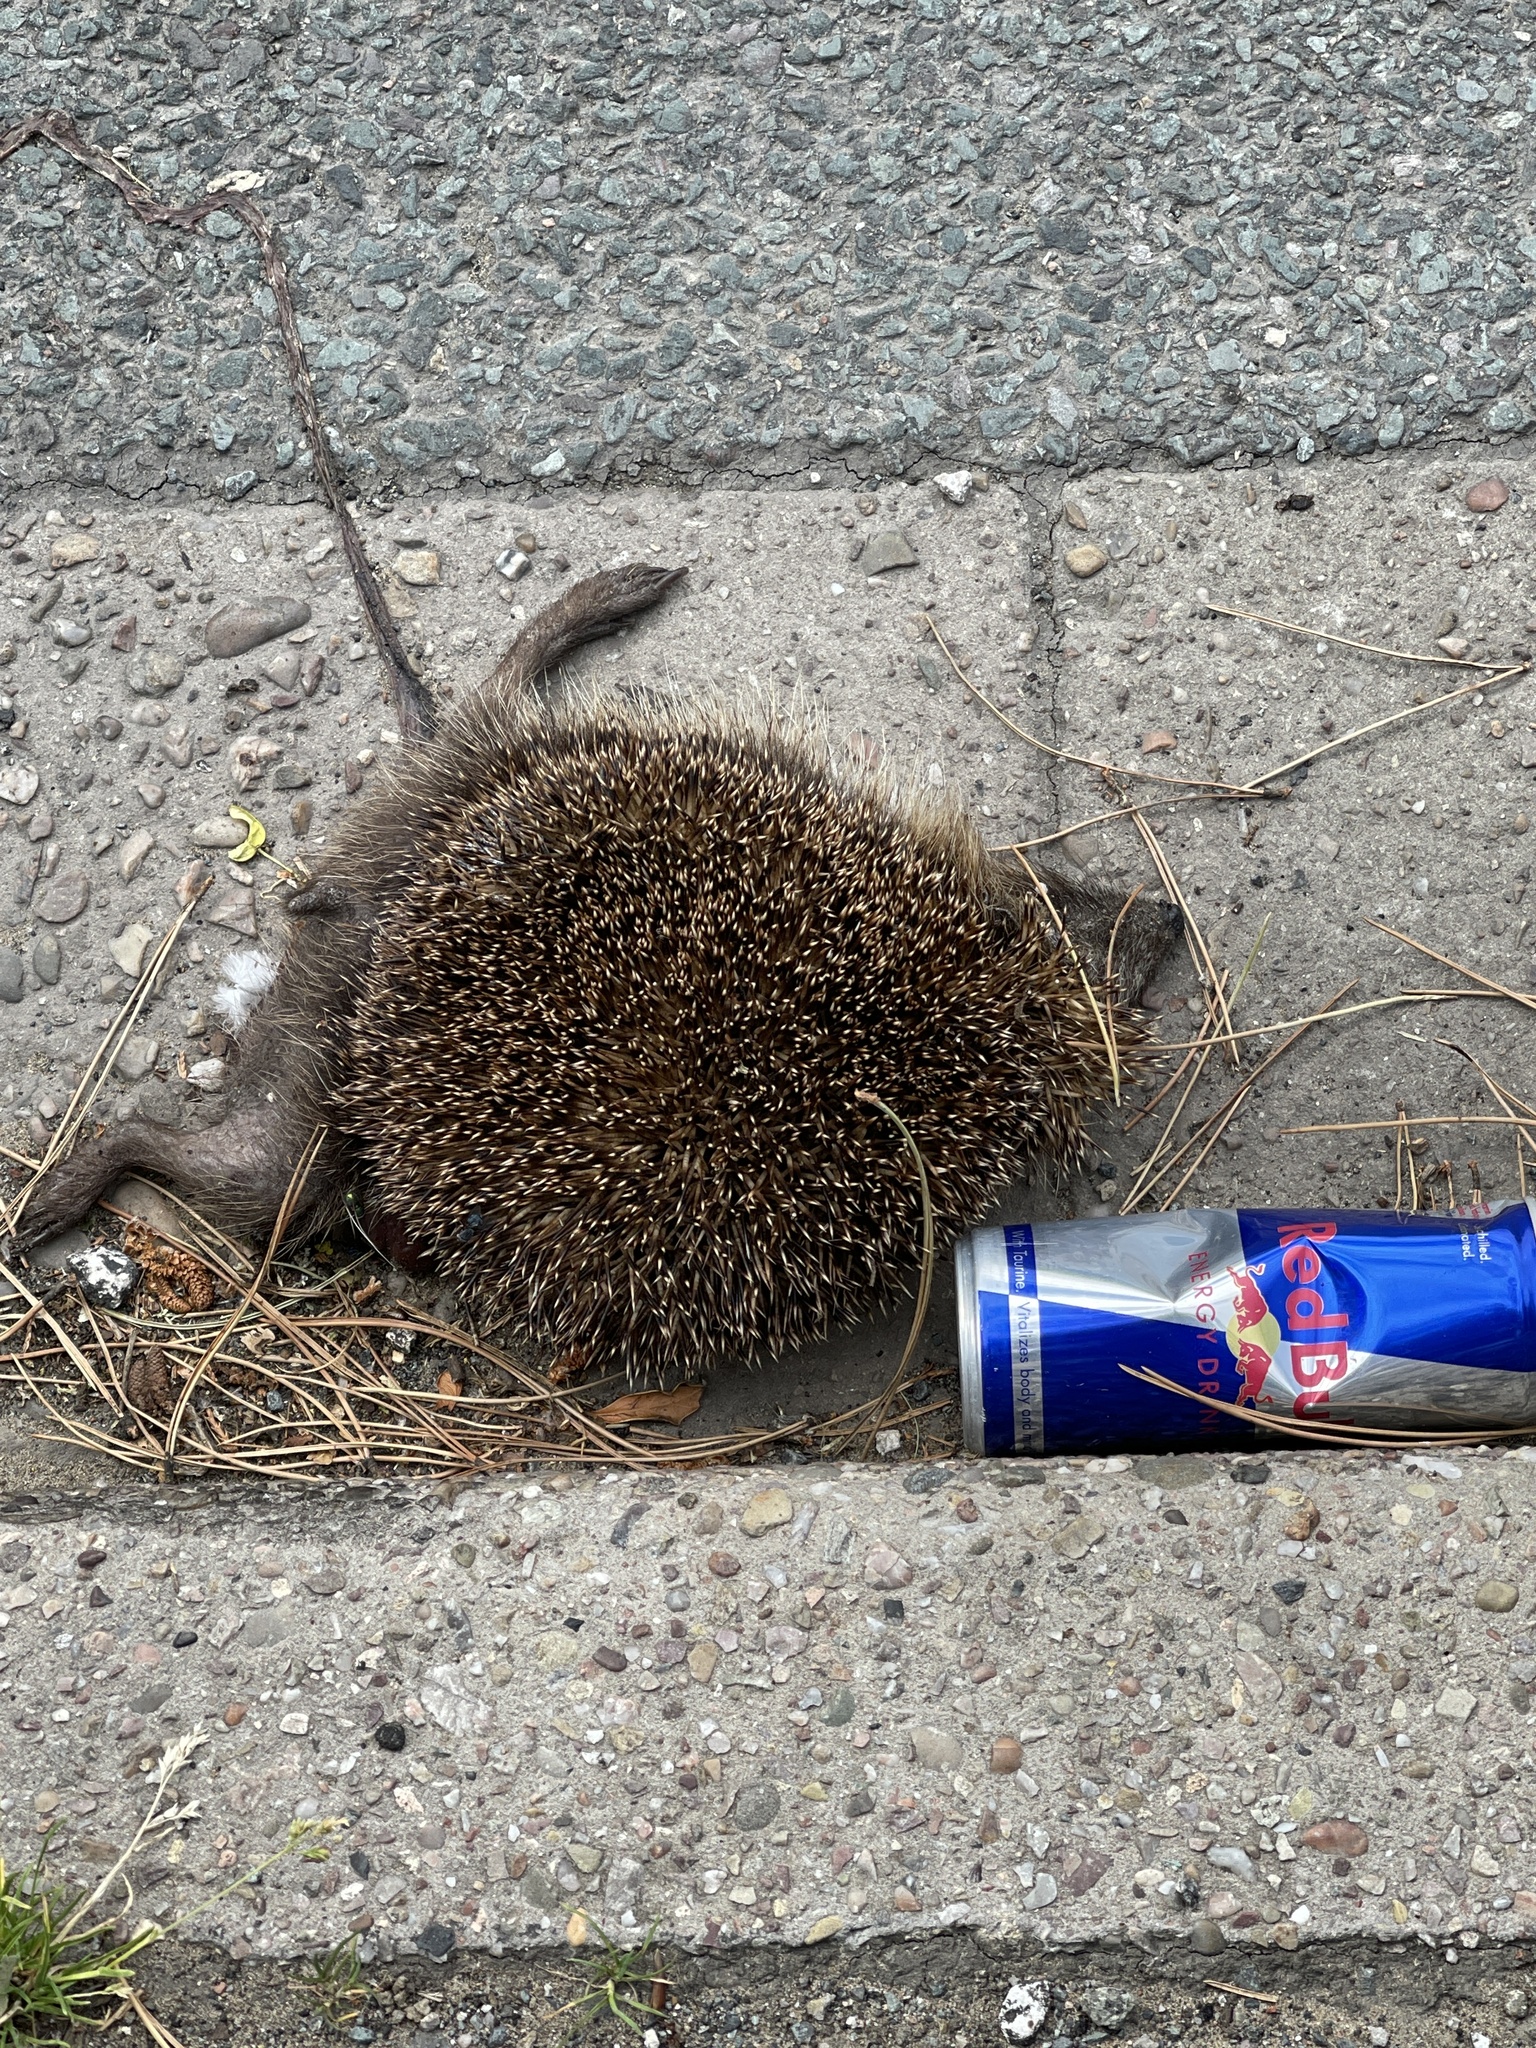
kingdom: Animalia
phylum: Chordata
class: Mammalia
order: Erinaceomorpha
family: Erinaceidae
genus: Erinaceus
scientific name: Erinaceus europaeus
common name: West european hedgehog
